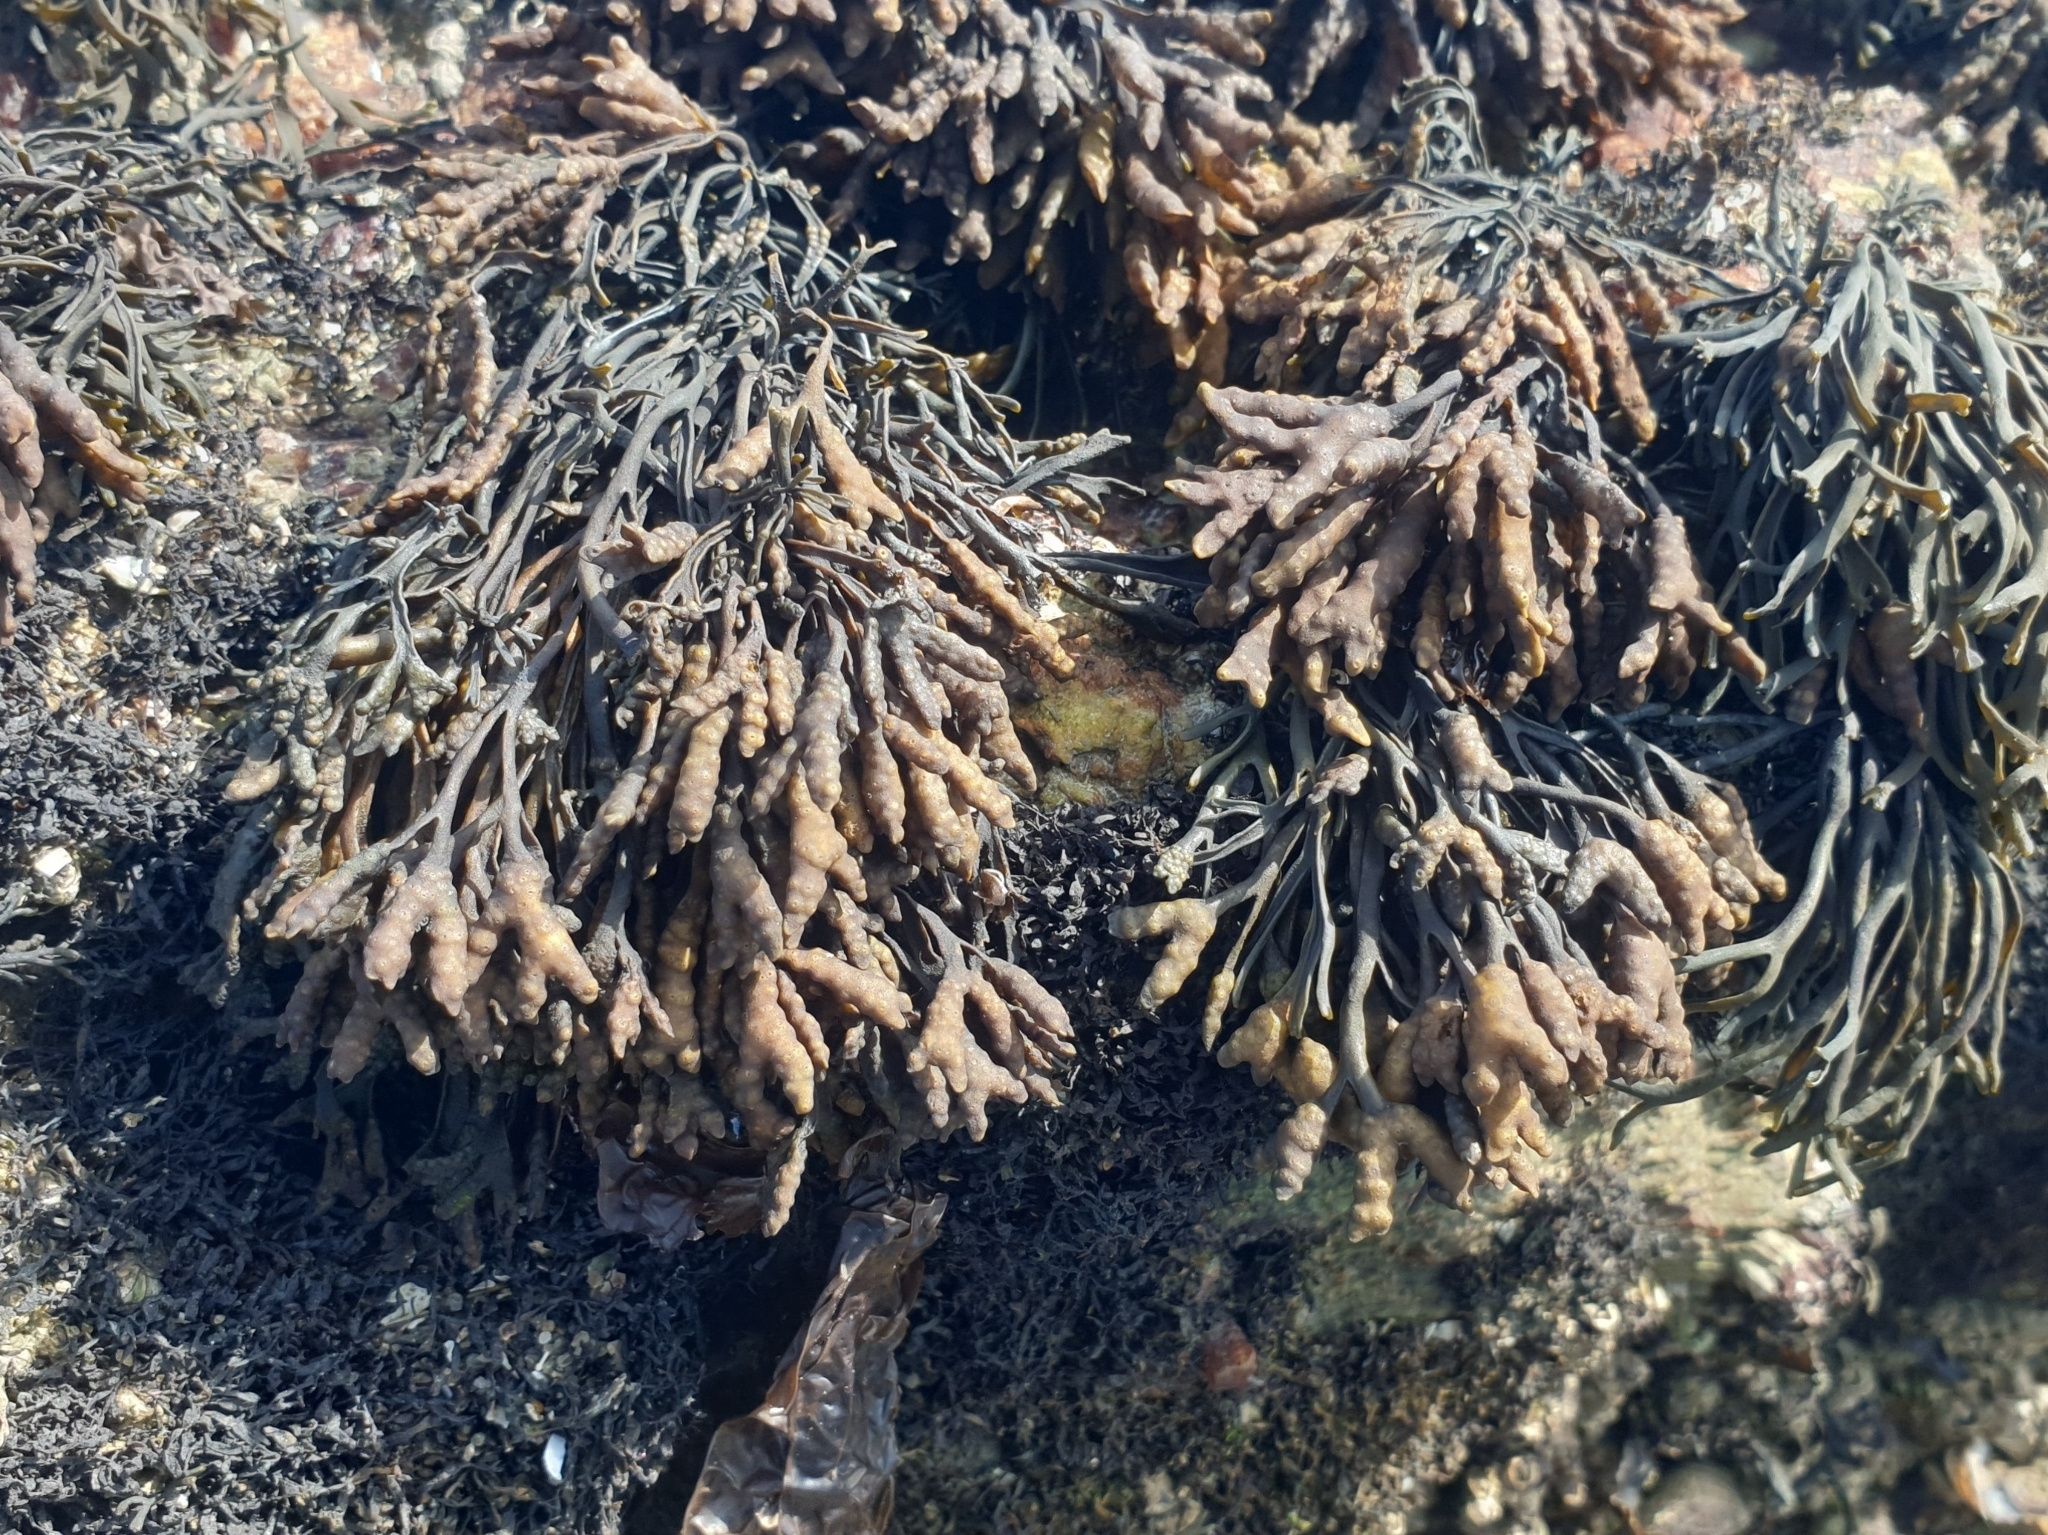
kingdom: Chromista
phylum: Ochrophyta
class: Phaeophyceae
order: Fucales
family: Fucaceae
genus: Pelvetia
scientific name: Pelvetia canaliculata
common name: Channelled wrack
